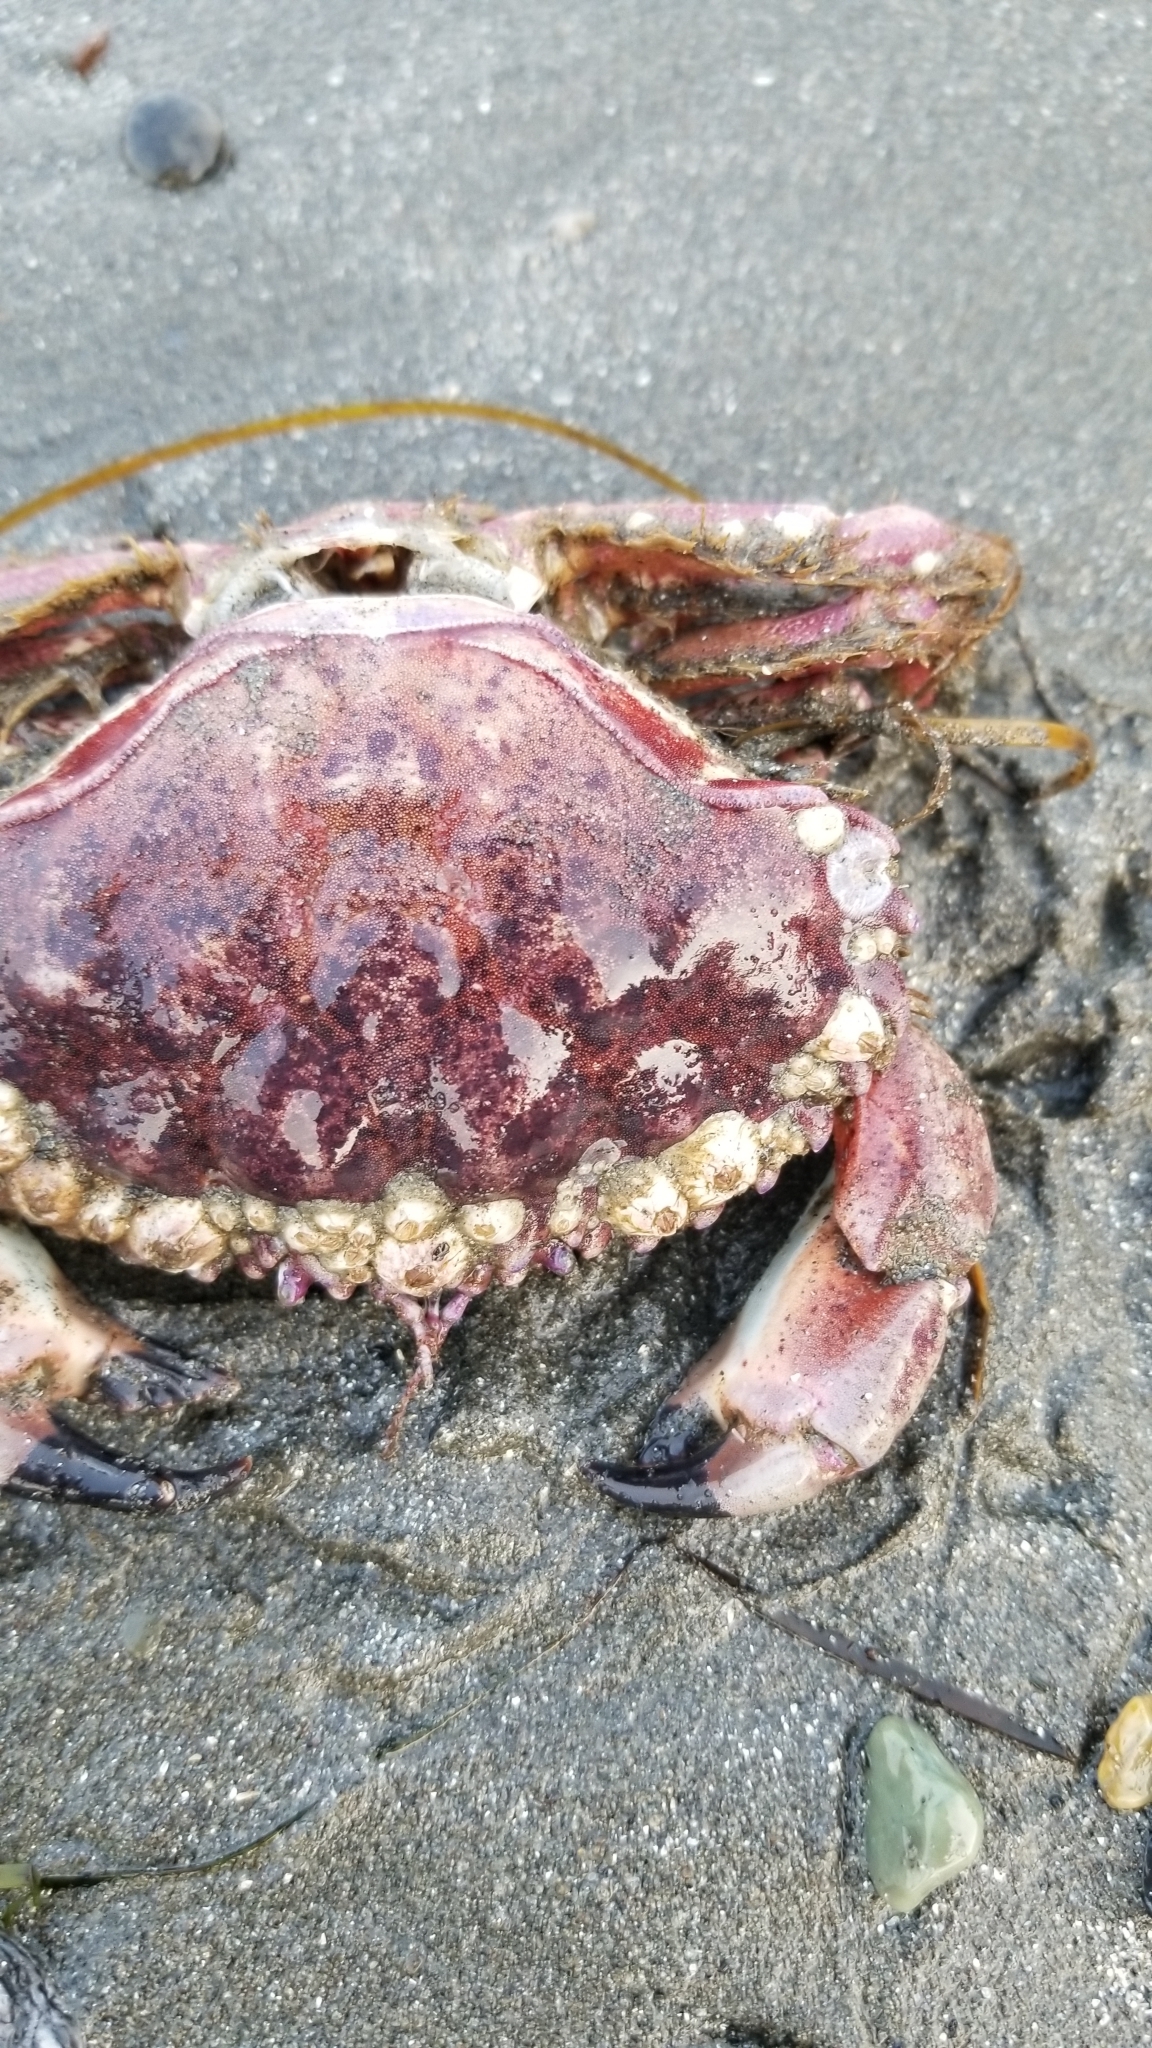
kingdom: Animalia
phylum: Arthropoda
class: Malacostraca
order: Decapoda
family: Cancridae
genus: Romaleon
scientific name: Romaleon antennarium
